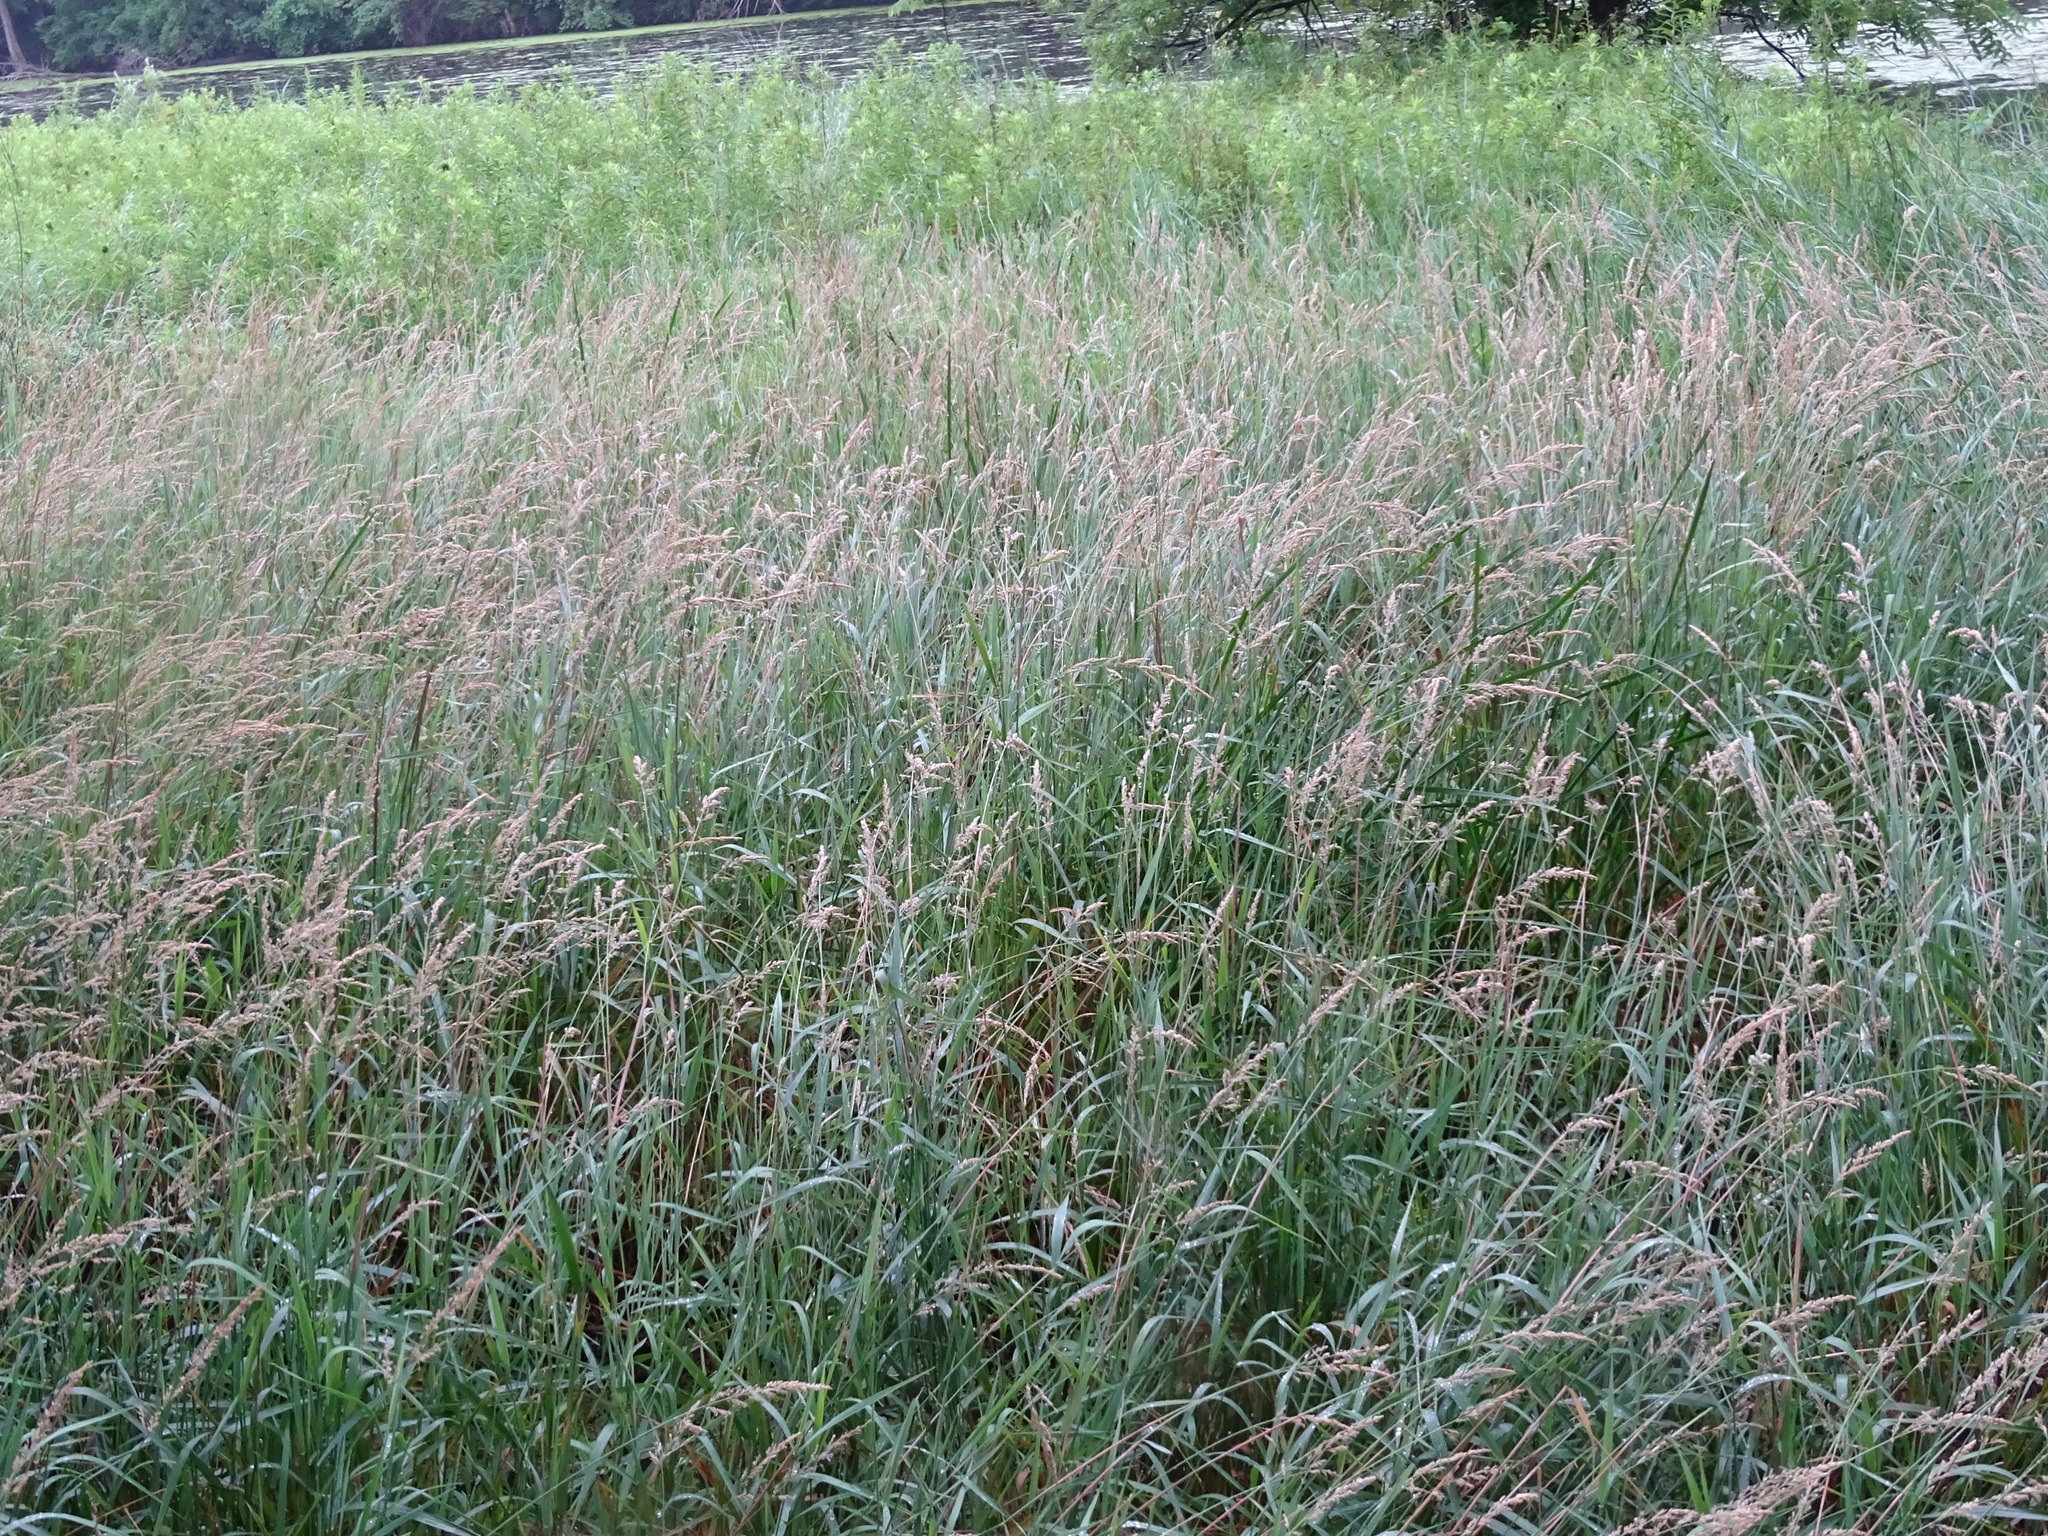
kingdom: Plantae
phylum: Tracheophyta
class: Liliopsida
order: Poales
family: Poaceae
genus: Phalaris
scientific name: Phalaris arundinacea
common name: Reed canary-grass
